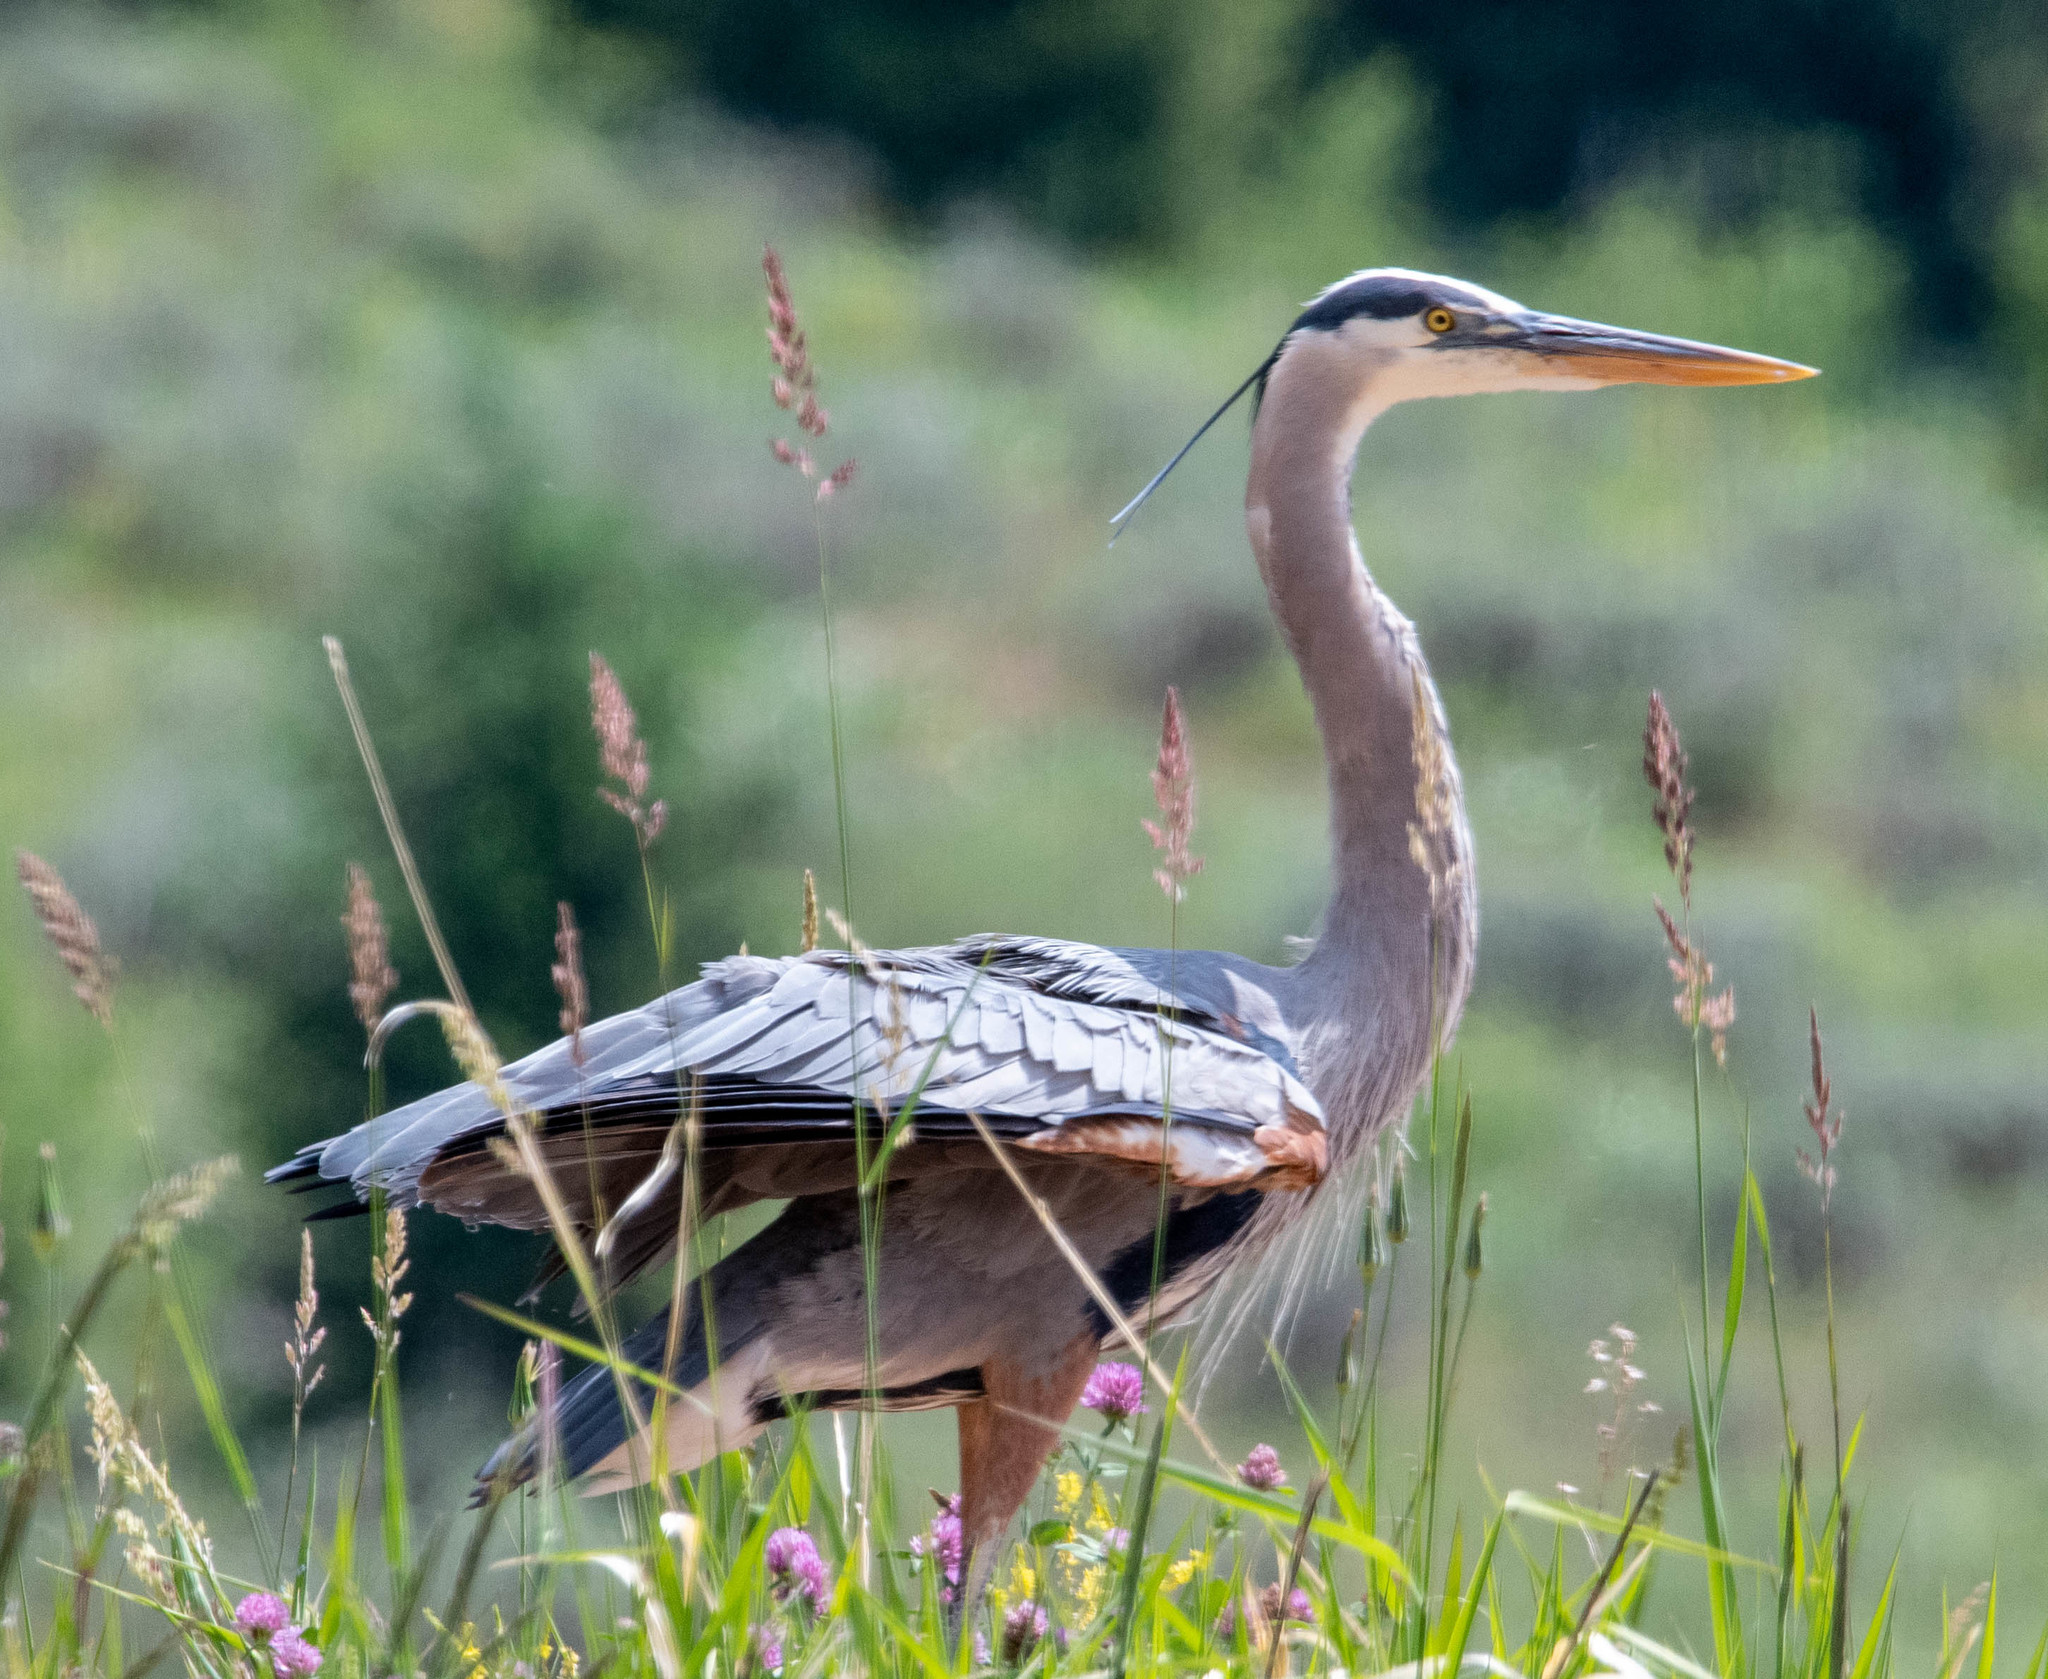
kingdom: Animalia
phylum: Chordata
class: Aves
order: Pelecaniformes
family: Ardeidae
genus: Ardea
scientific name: Ardea herodias
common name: Great blue heron
